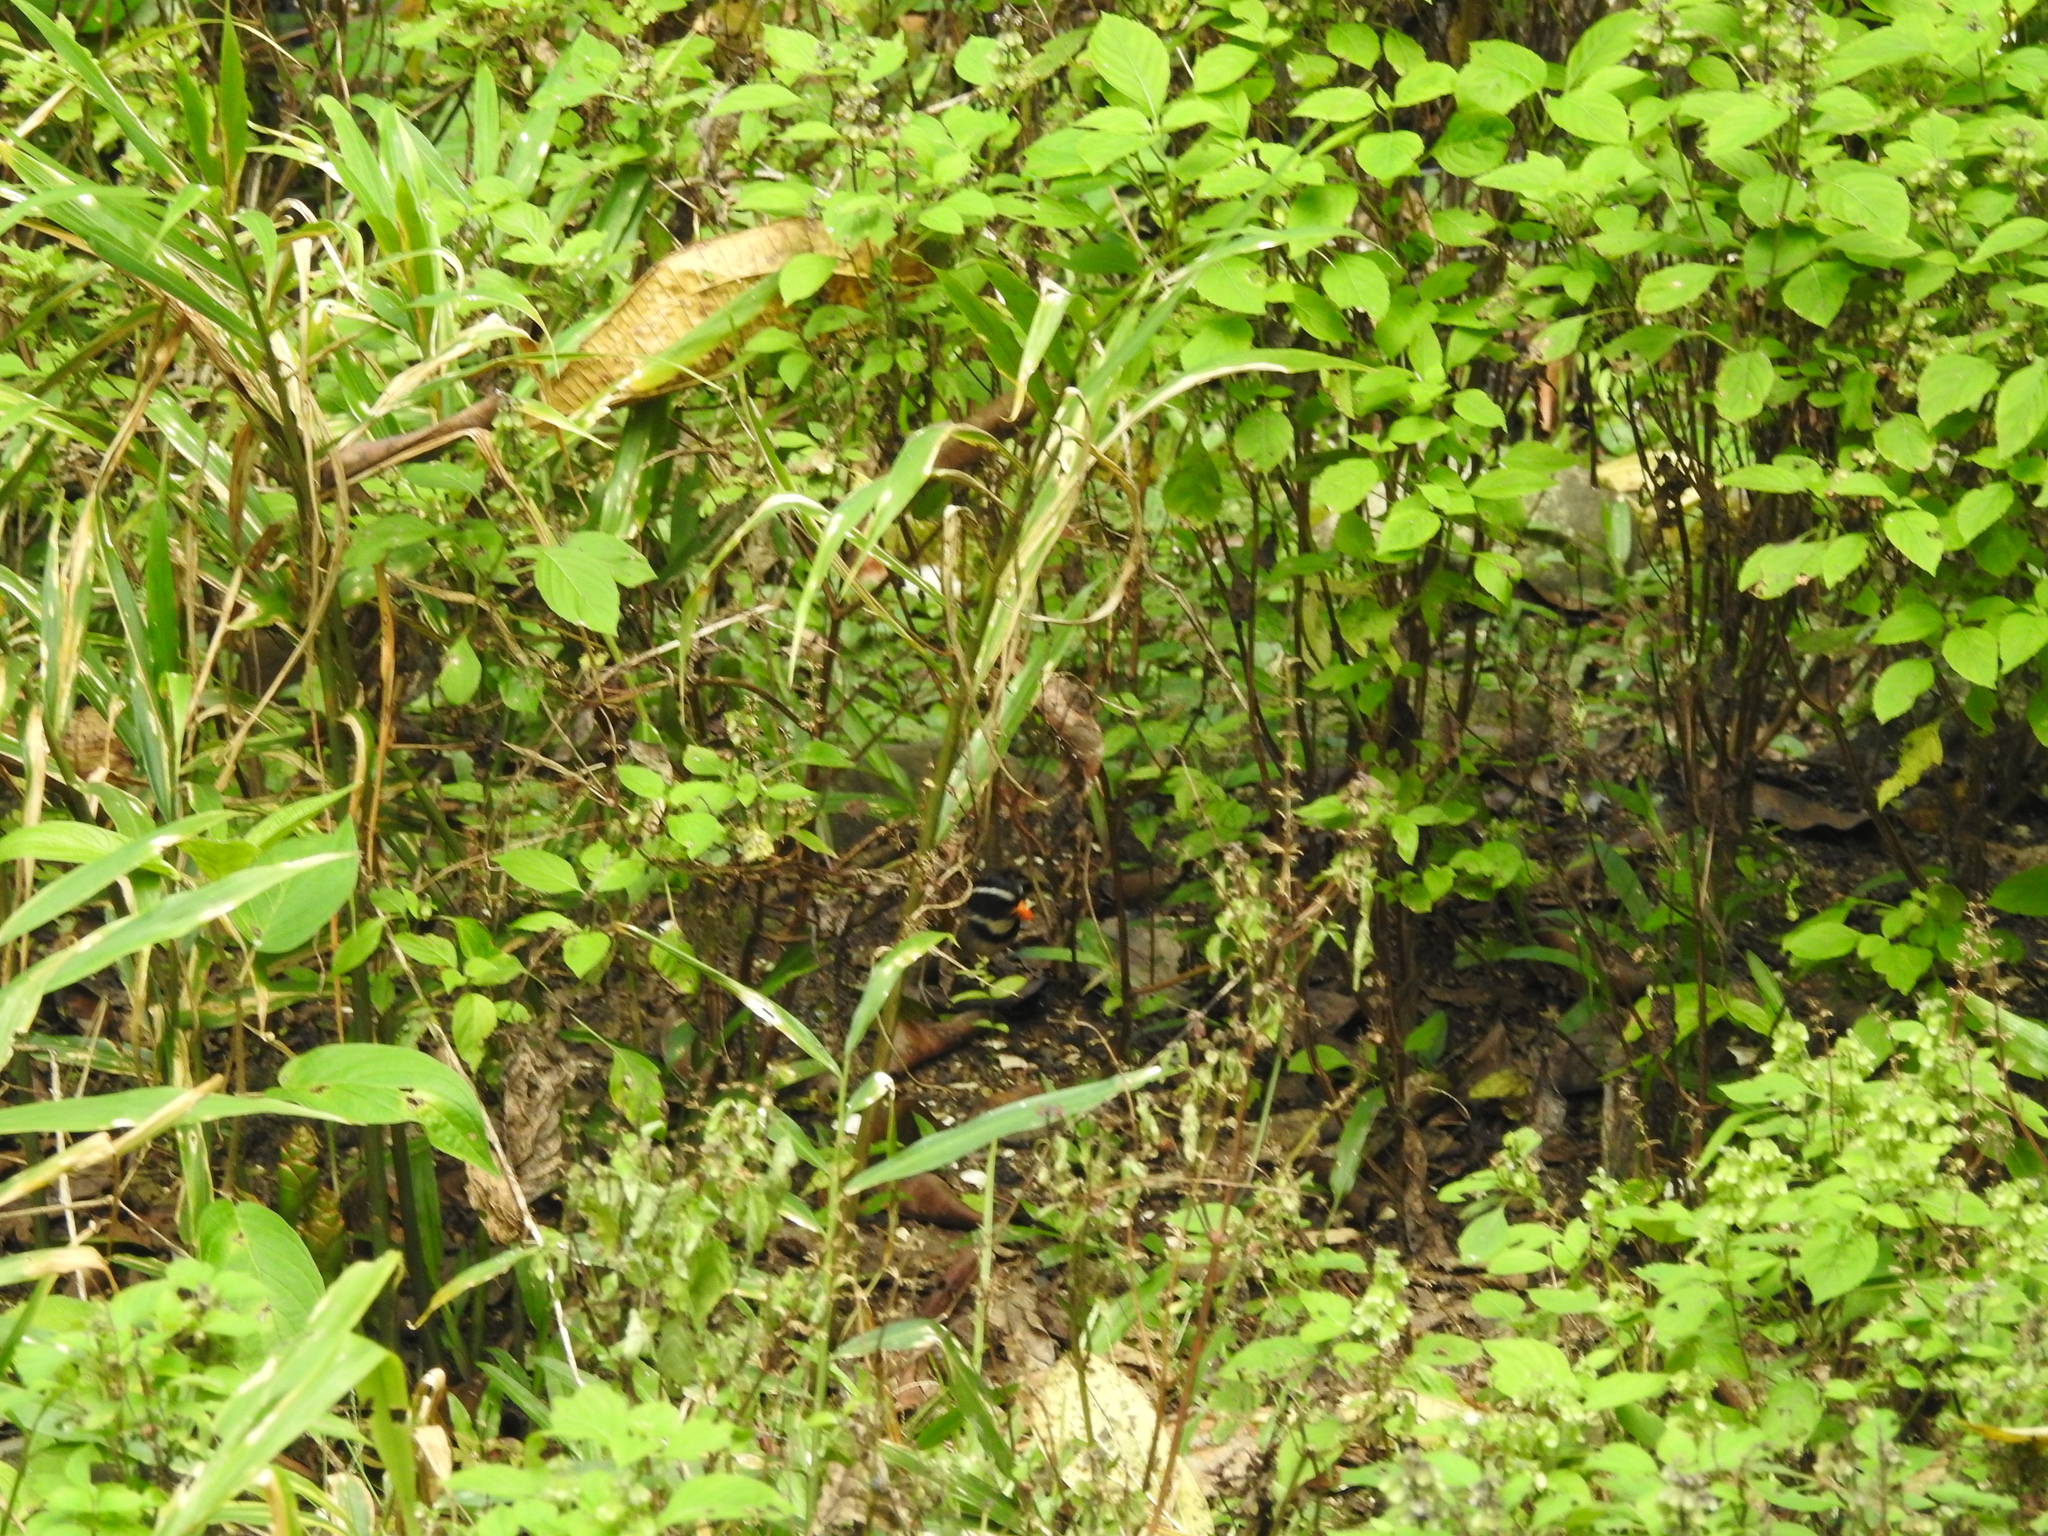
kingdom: Animalia
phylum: Chordata
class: Aves
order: Passeriformes
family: Passerellidae
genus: Arremon
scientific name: Arremon aurantiirostris
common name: Orange-billed sparrow
